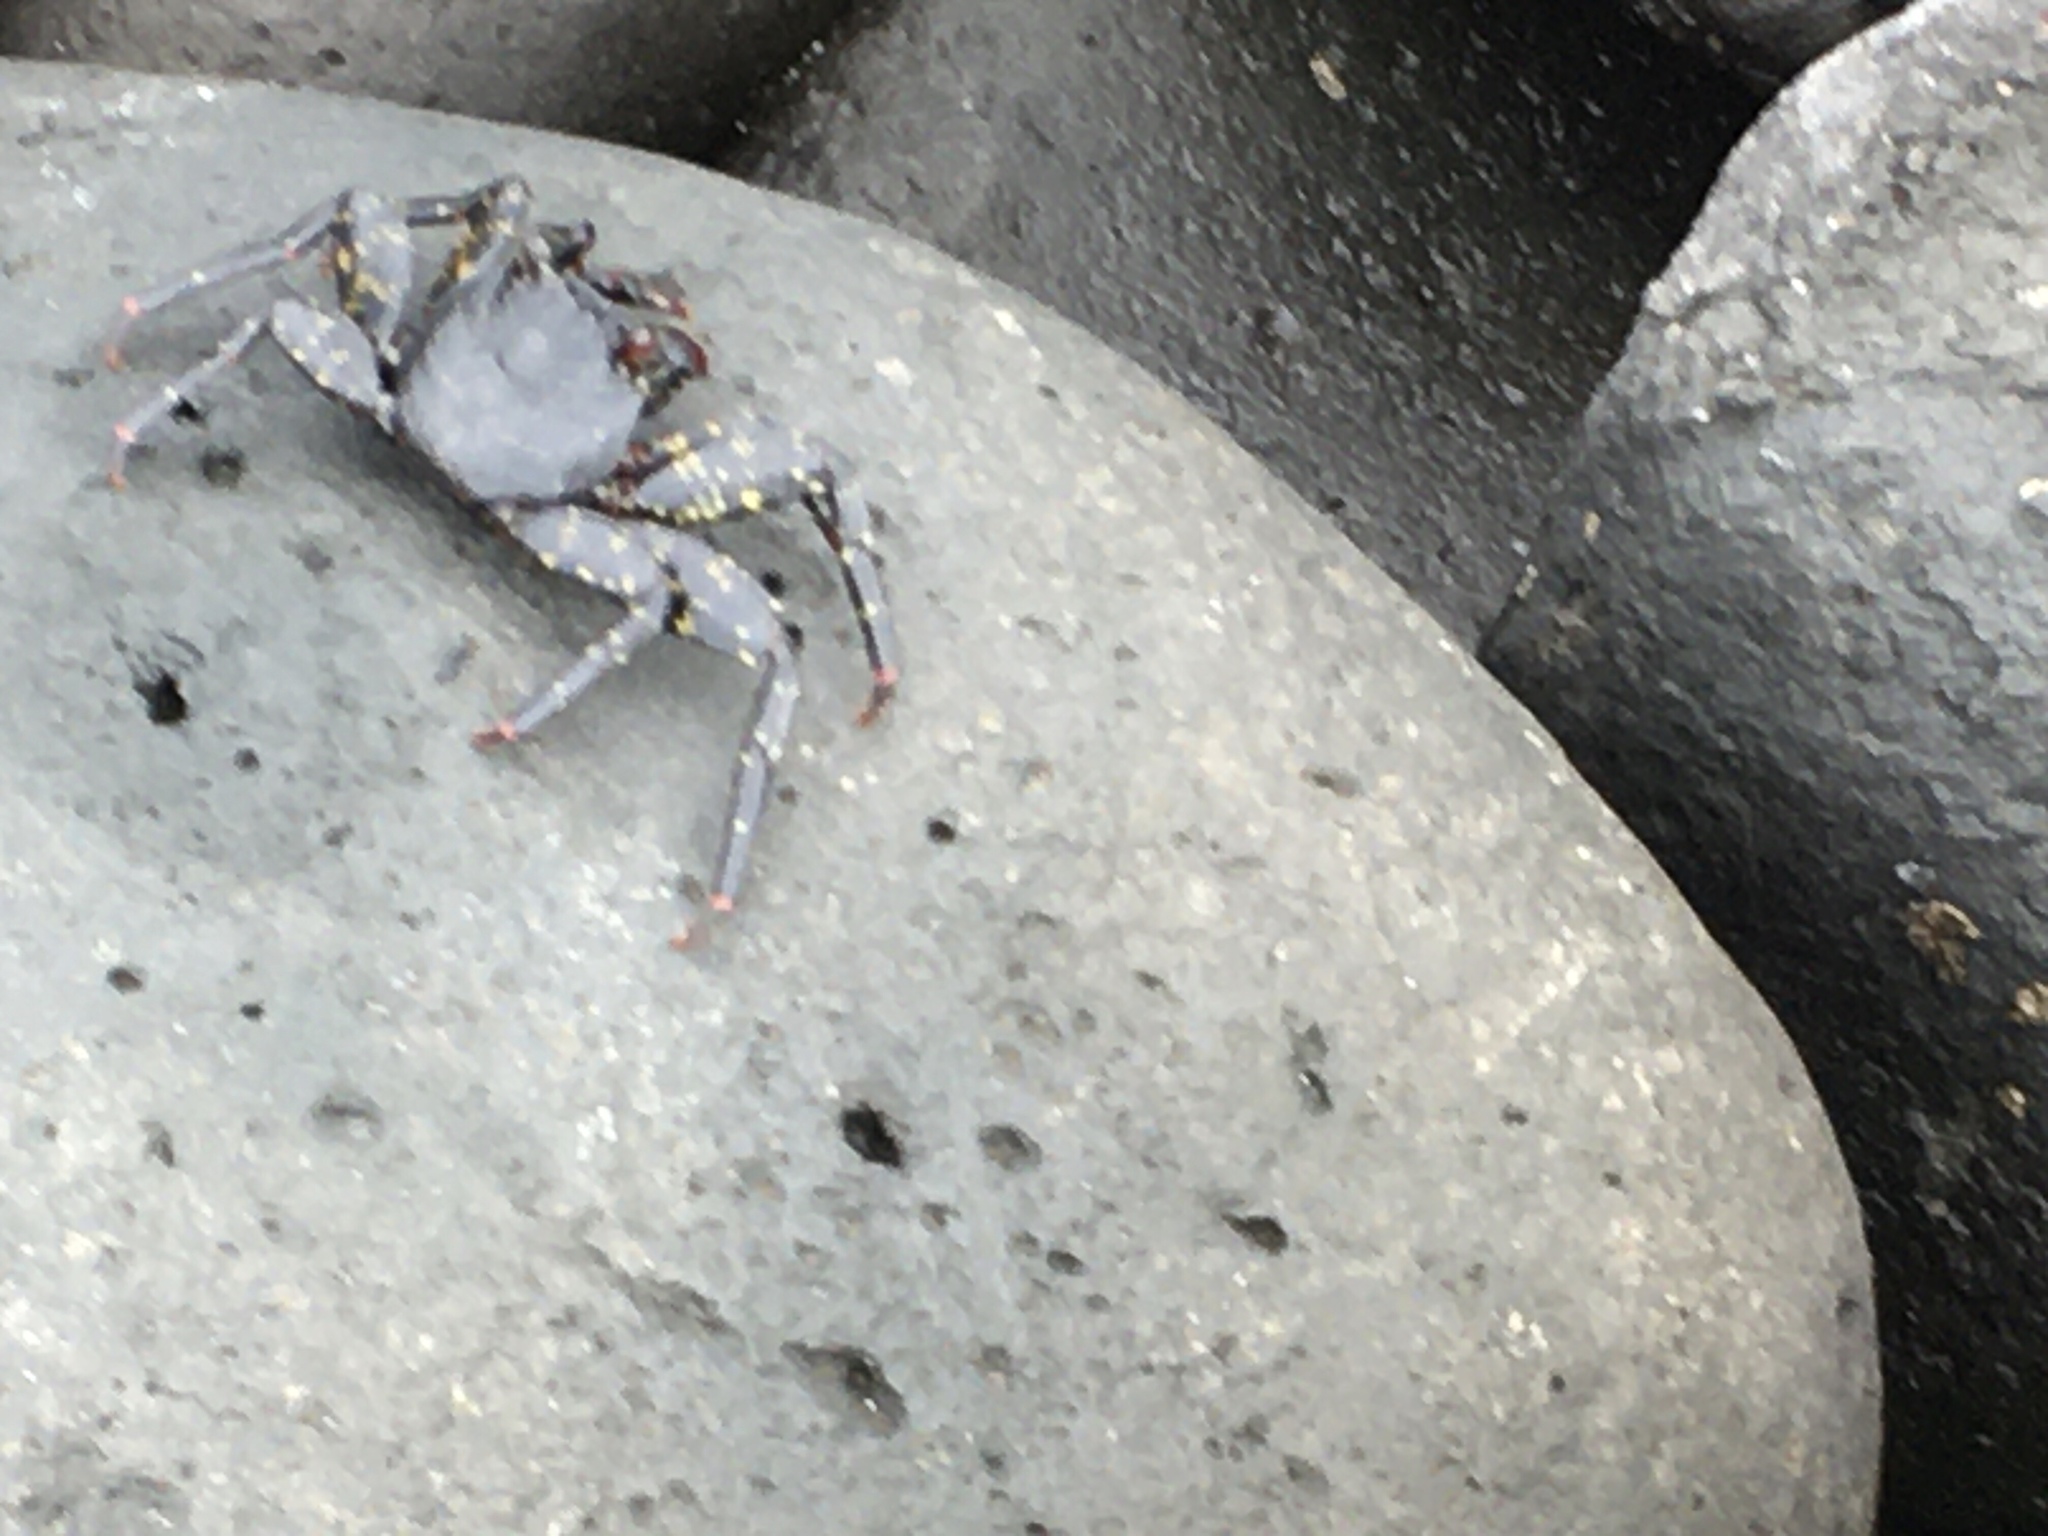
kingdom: Animalia
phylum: Arthropoda
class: Malacostraca
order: Decapoda
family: Grapsidae
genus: Grapsus
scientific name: Grapsus grapsus
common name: Sally lightfoot
